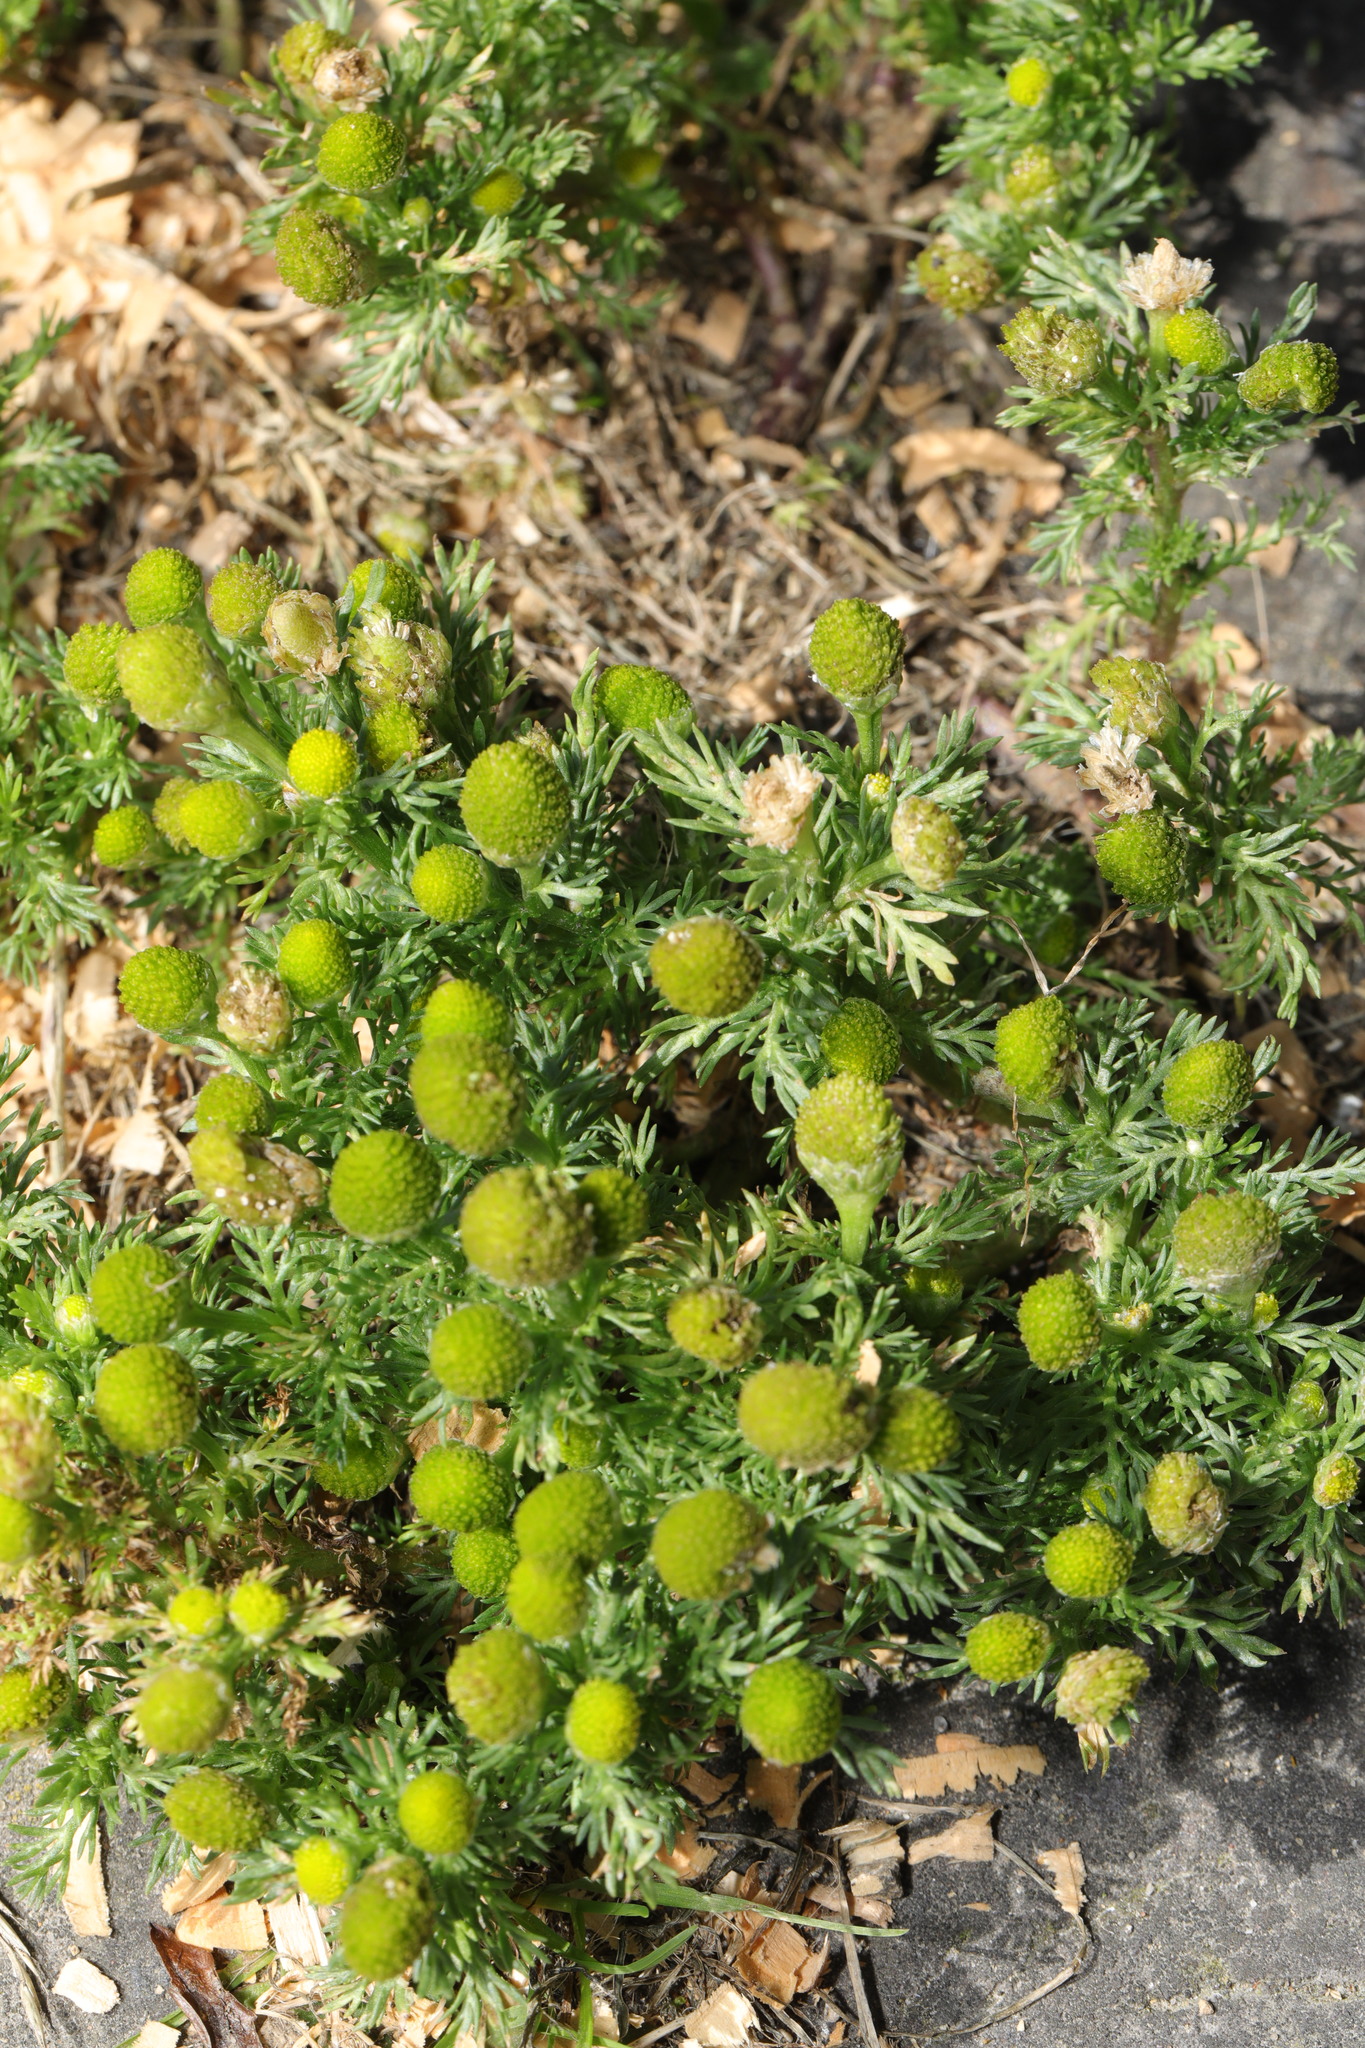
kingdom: Plantae
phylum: Tracheophyta
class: Magnoliopsida
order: Asterales
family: Asteraceae
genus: Matricaria
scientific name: Matricaria discoidea
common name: Disc mayweed
